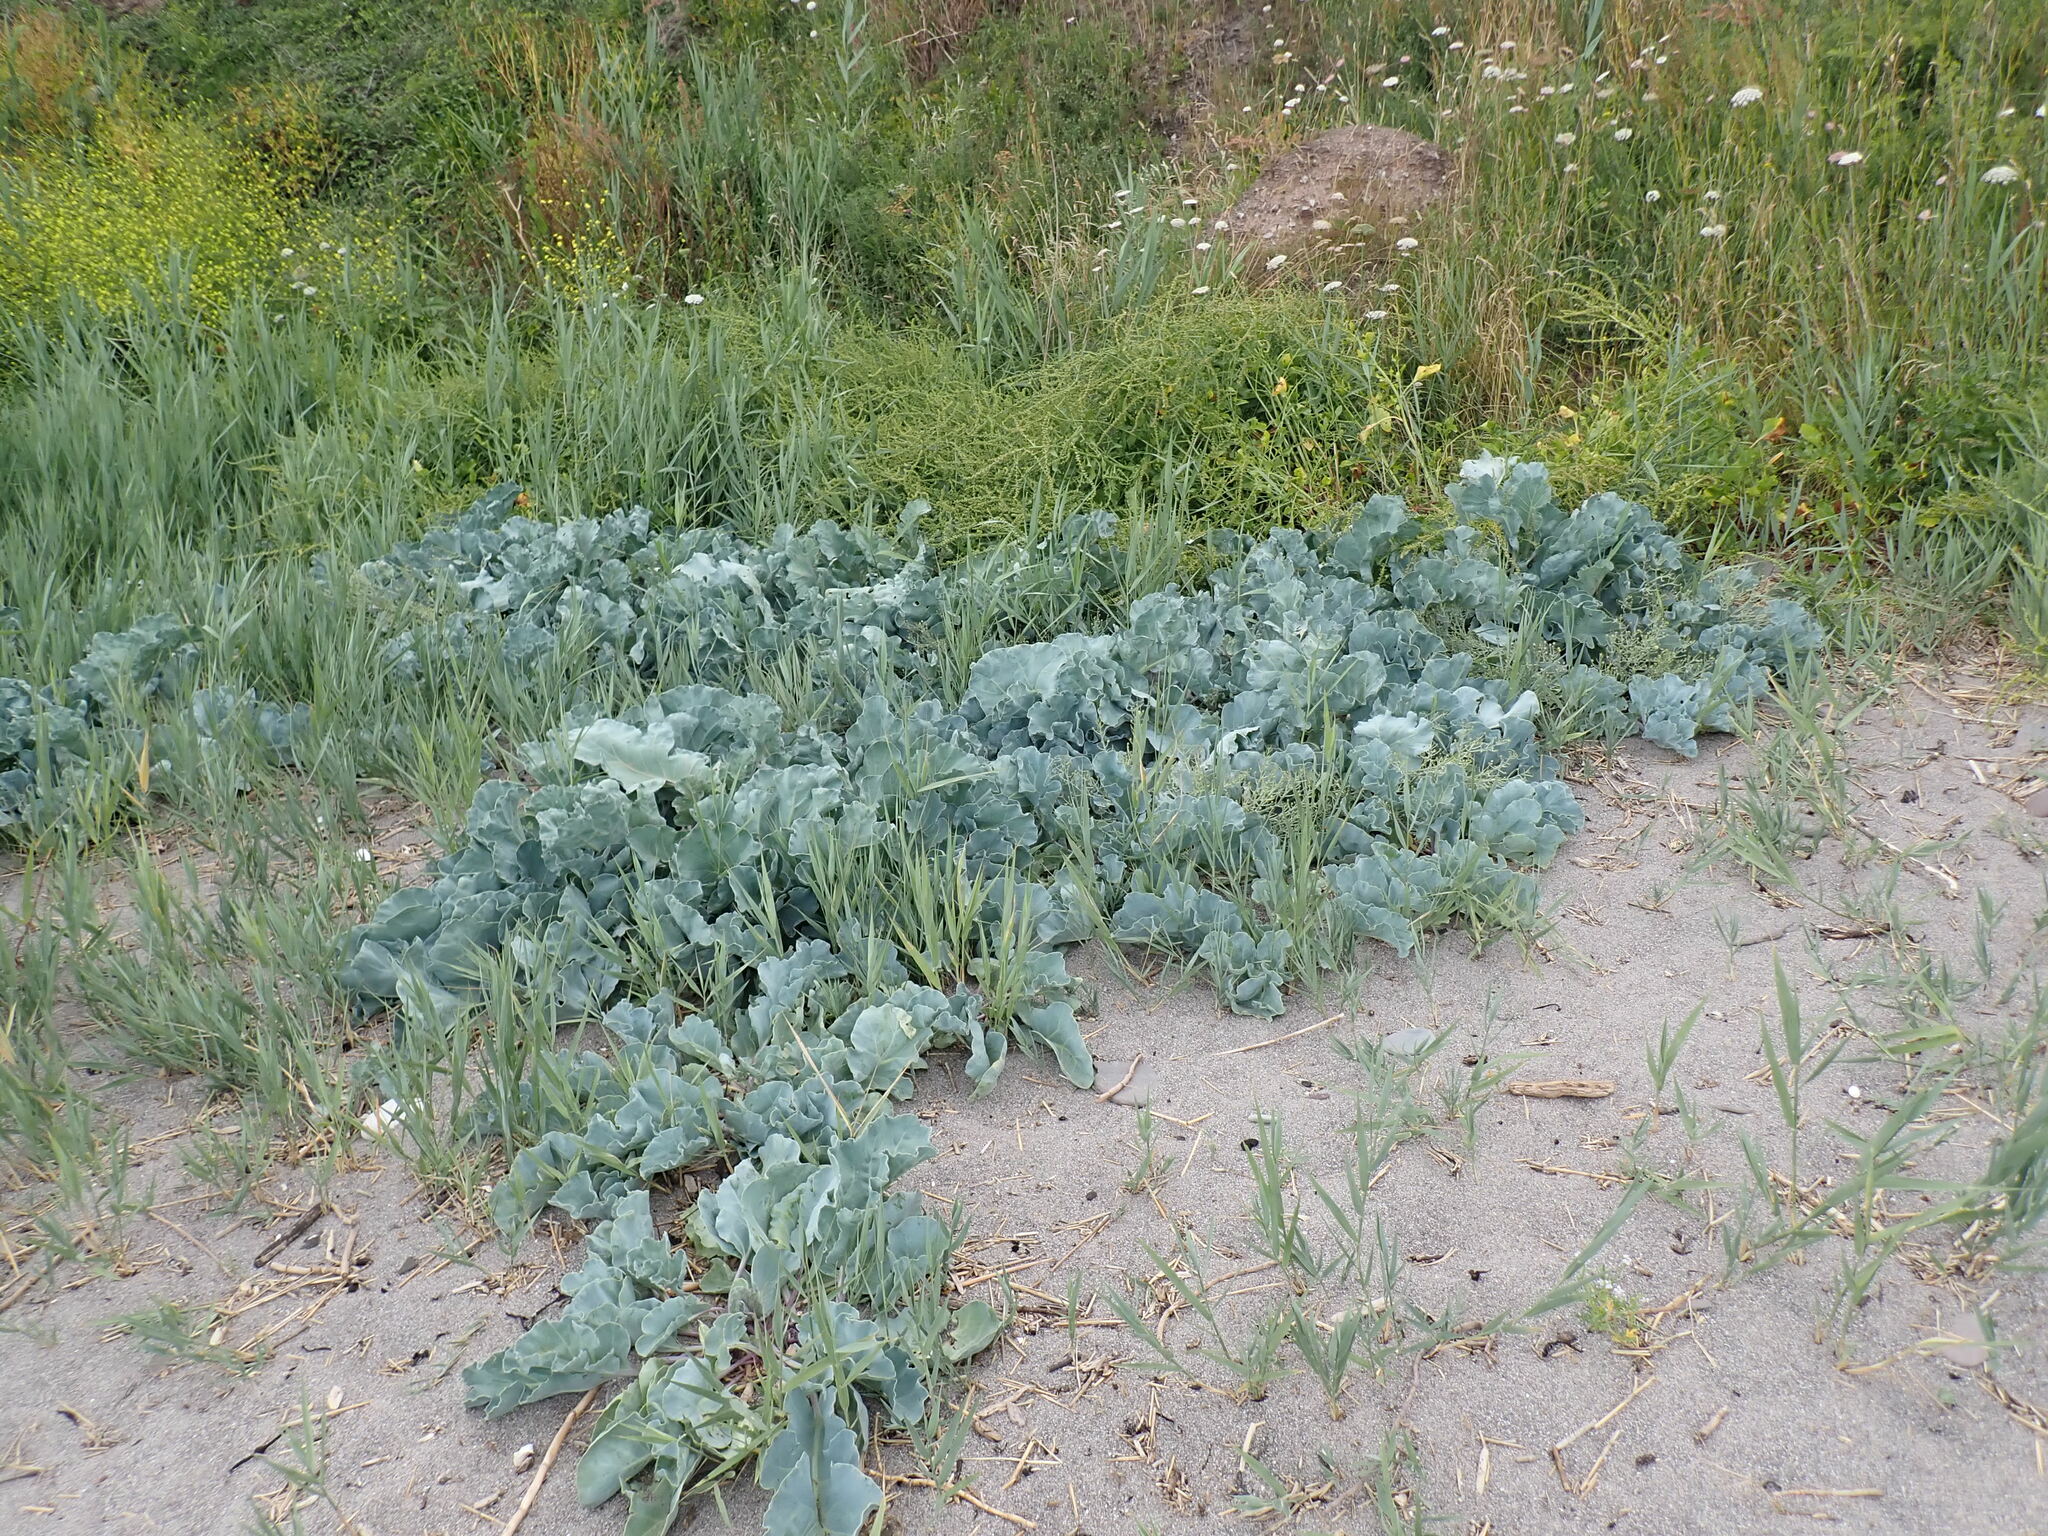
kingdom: Plantae
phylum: Tracheophyta
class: Magnoliopsida
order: Brassicales
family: Brassicaceae
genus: Crambe
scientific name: Crambe maritima
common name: Sea-kale
